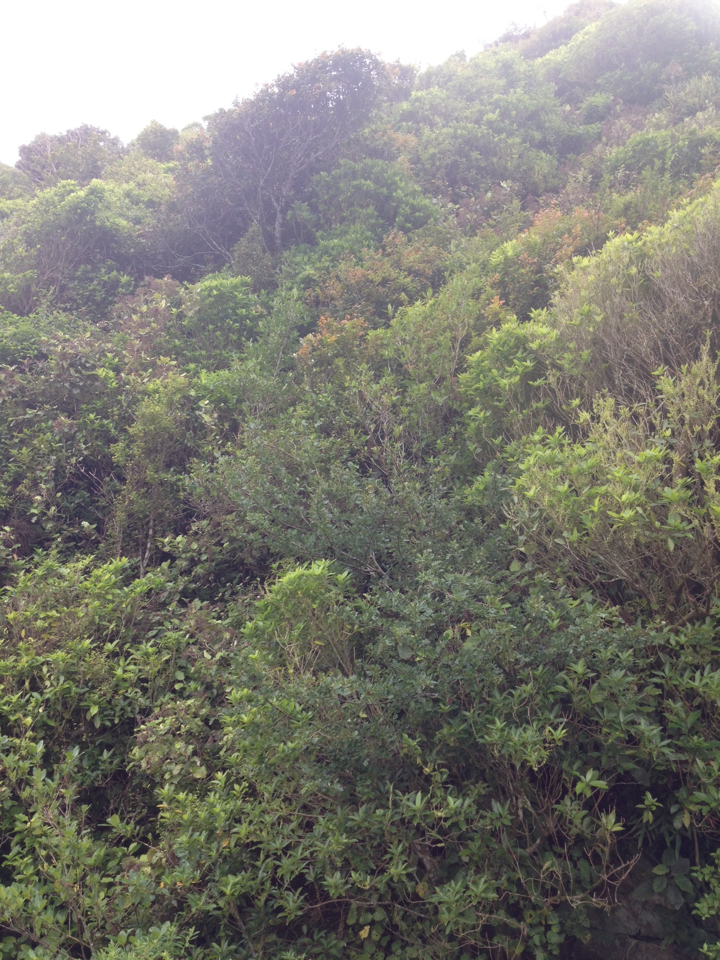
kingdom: Animalia
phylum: Chordata
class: Aves
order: Passeriformes
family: Meliphagidae
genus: Anthornis
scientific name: Anthornis melanura
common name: New zealand bellbird
